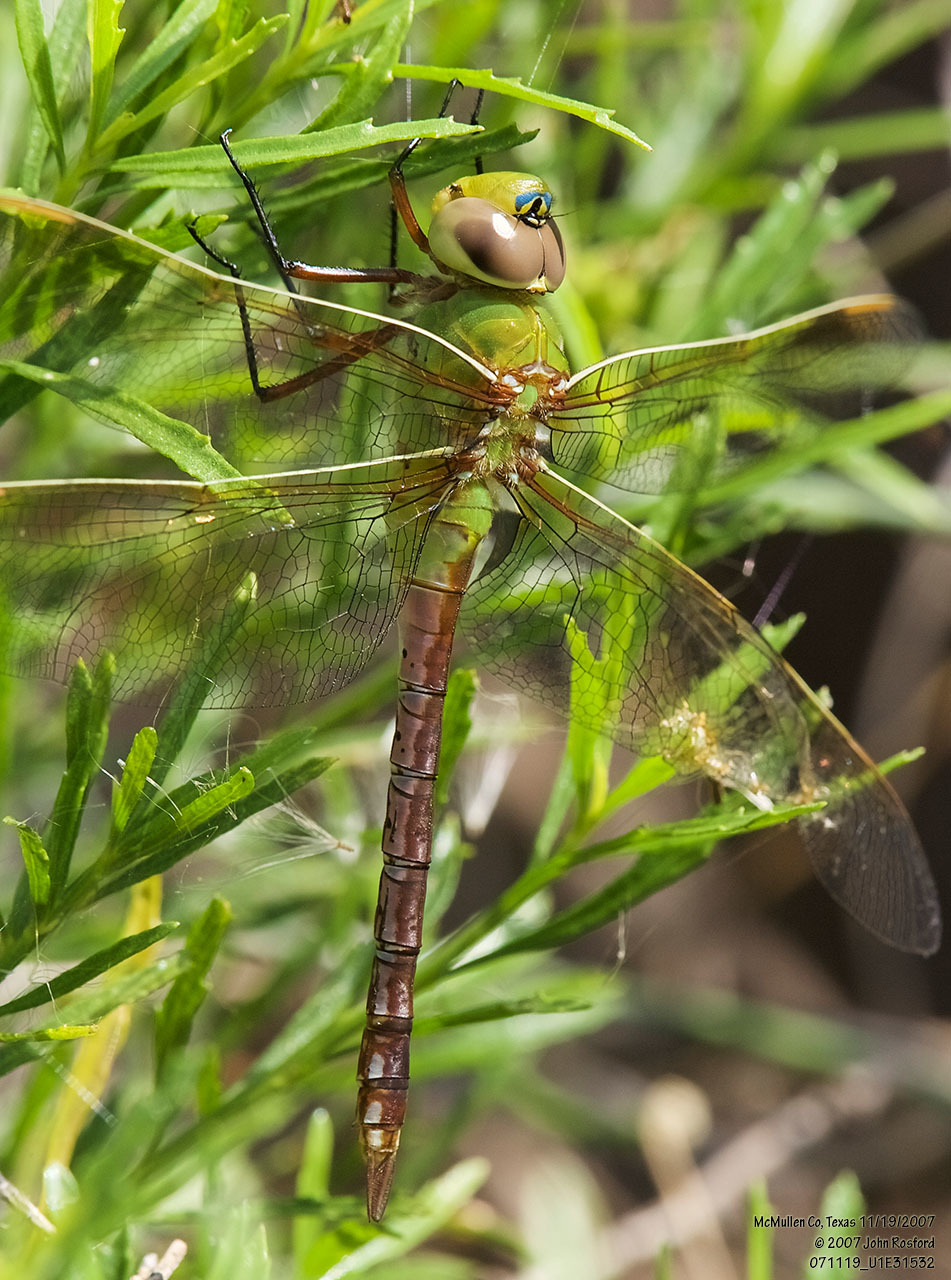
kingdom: Animalia
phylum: Arthropoda
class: Insecta
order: Odonata
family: Aeshnidae
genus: Anax
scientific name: Anax junius
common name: Common green darner
